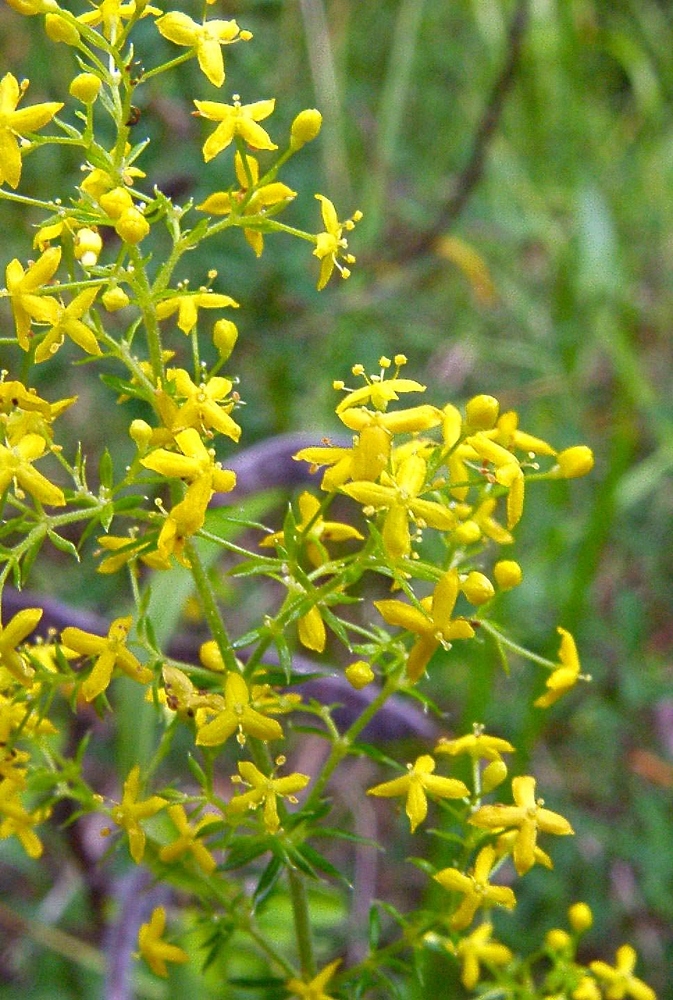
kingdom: Plantae
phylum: Tracheophyta
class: Magnoliopsida
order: Gentianales
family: Rubiaceae
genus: Galium
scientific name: Galium verum
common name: Lady's bedstraw
